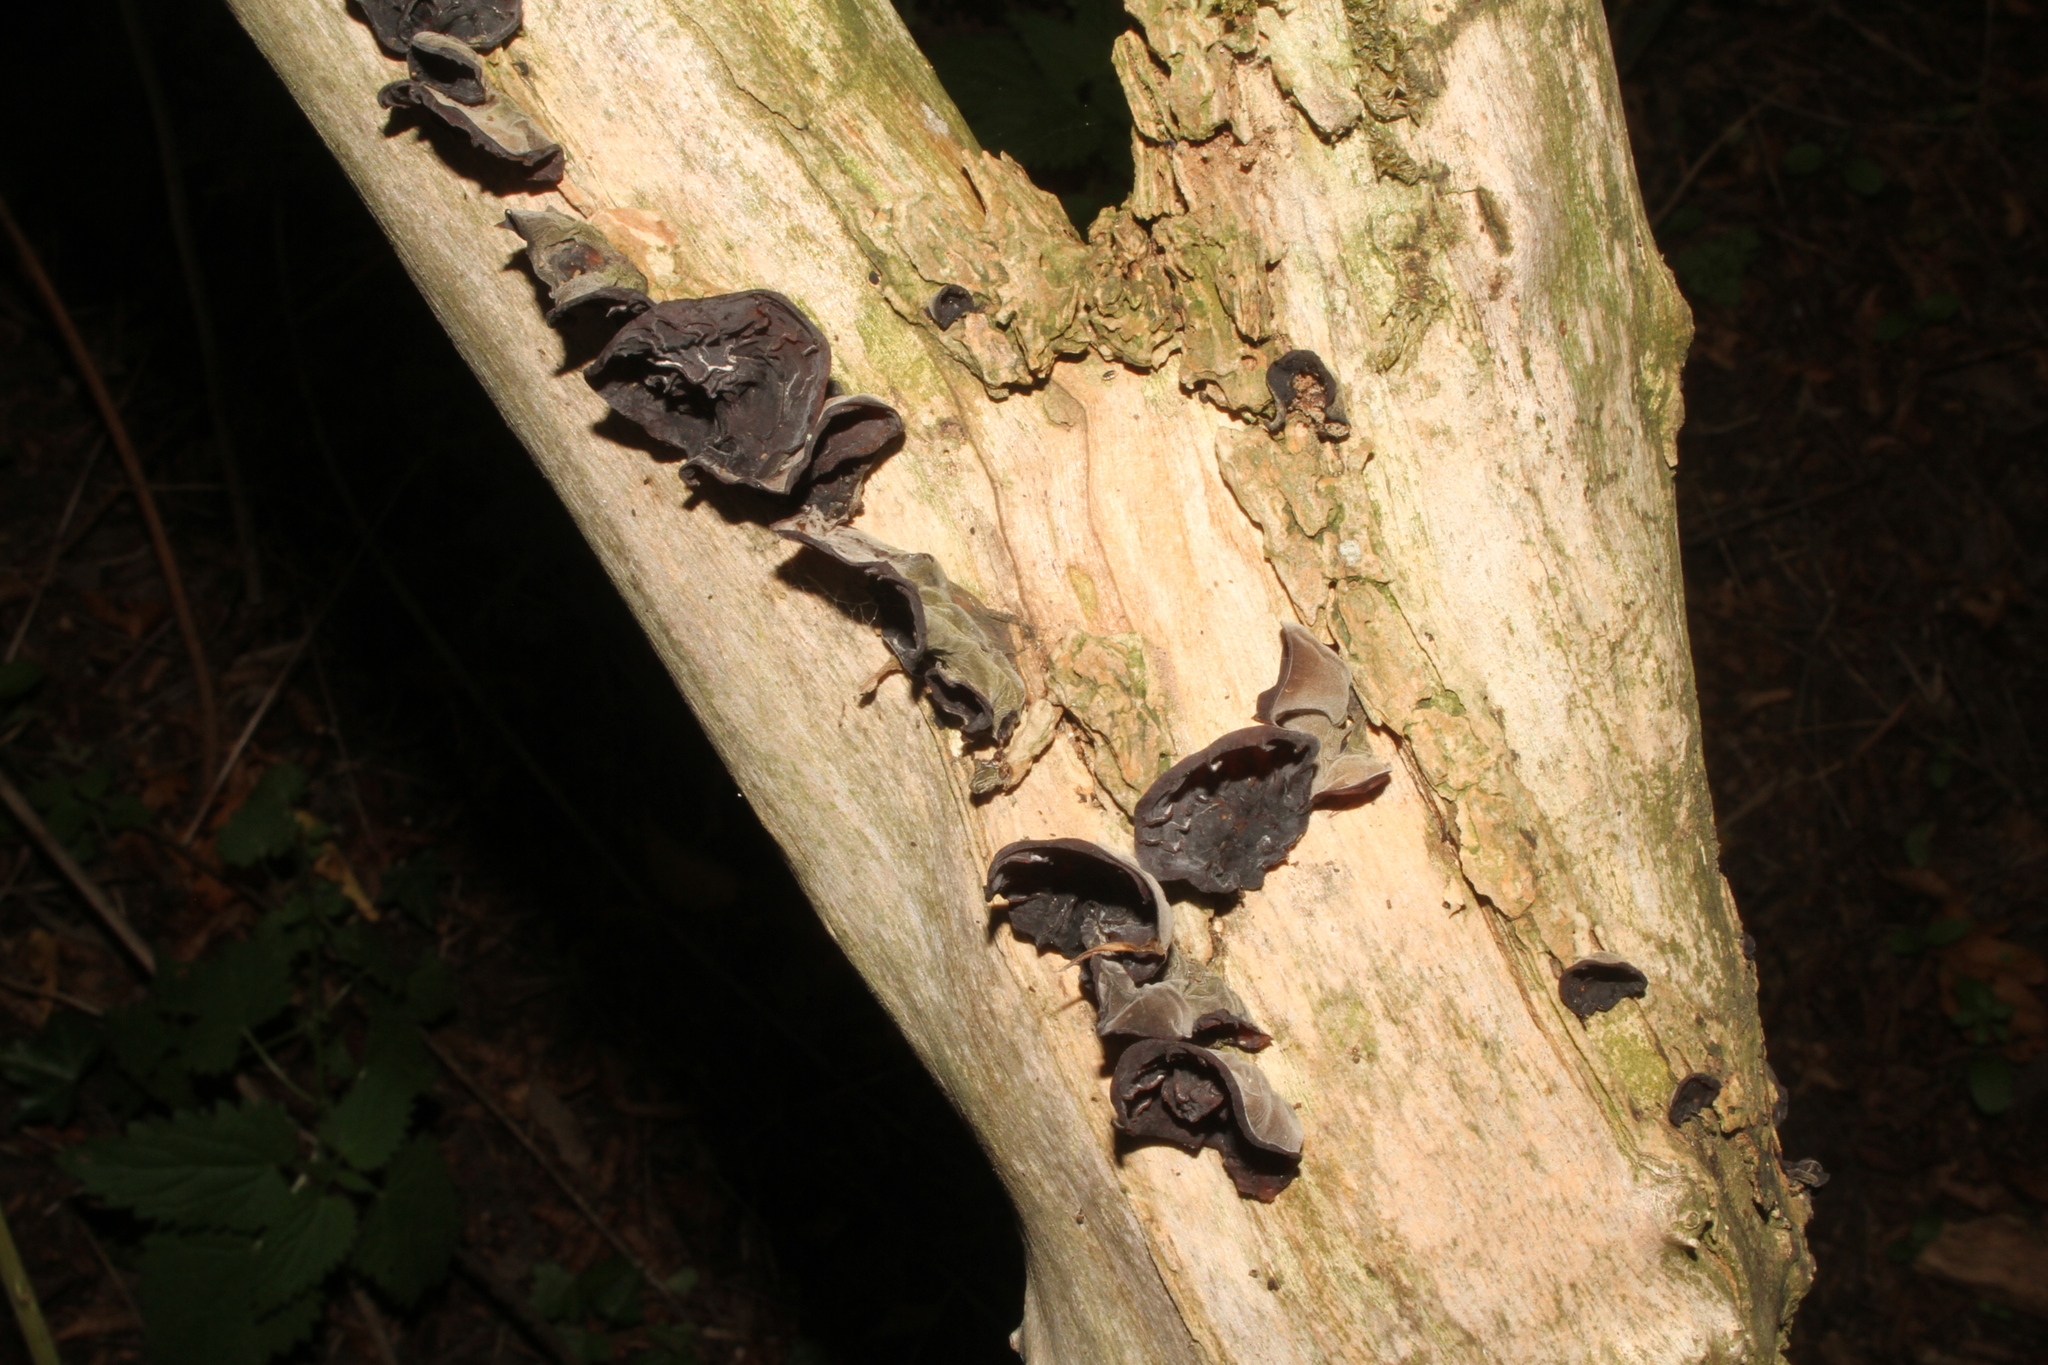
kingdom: Fungi
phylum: Basidiomycota
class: Agaricomycetes
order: Auriculariales
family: Auriculariaceae
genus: Auricularia
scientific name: Auricularia auricula-judae
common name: Jelly ear
